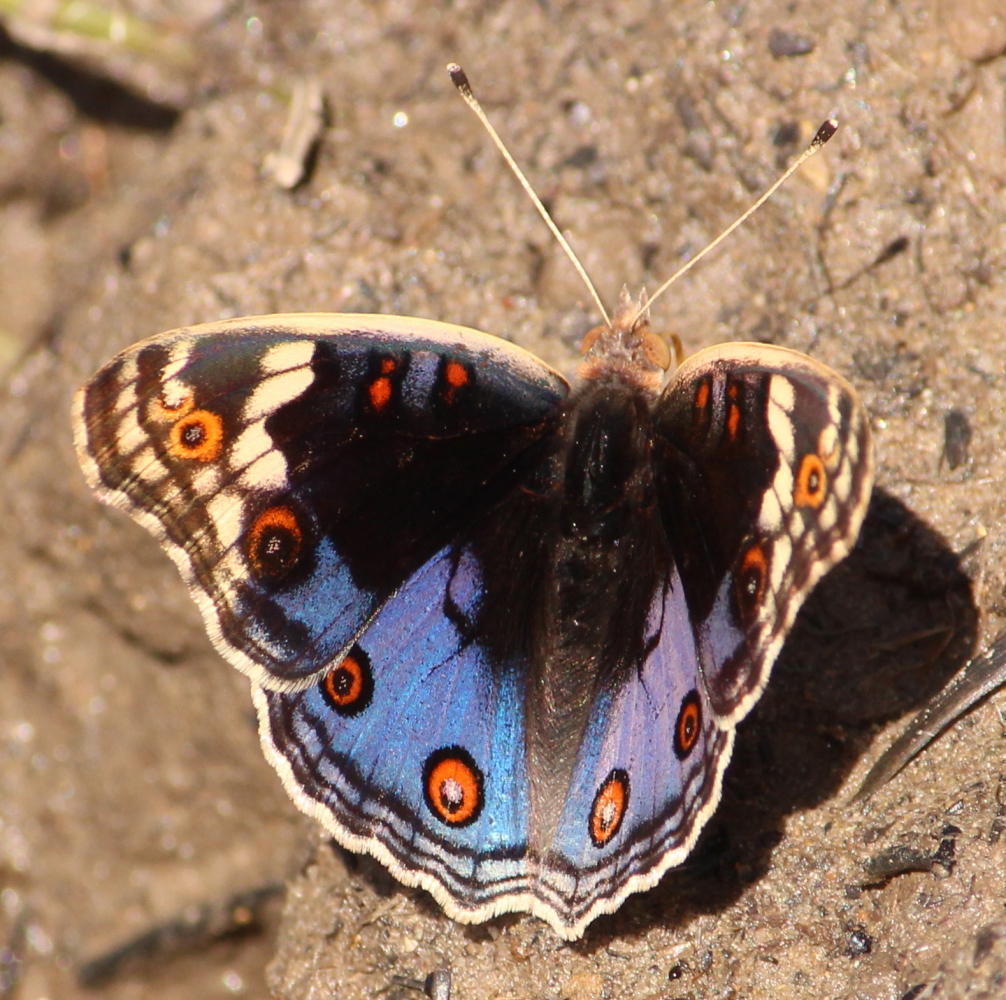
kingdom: Animalia
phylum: Arthropoda
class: Insecta
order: Lepidoptera
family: Nymphalidae
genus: Junonia
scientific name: Junonia orithya
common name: Blue pansy
